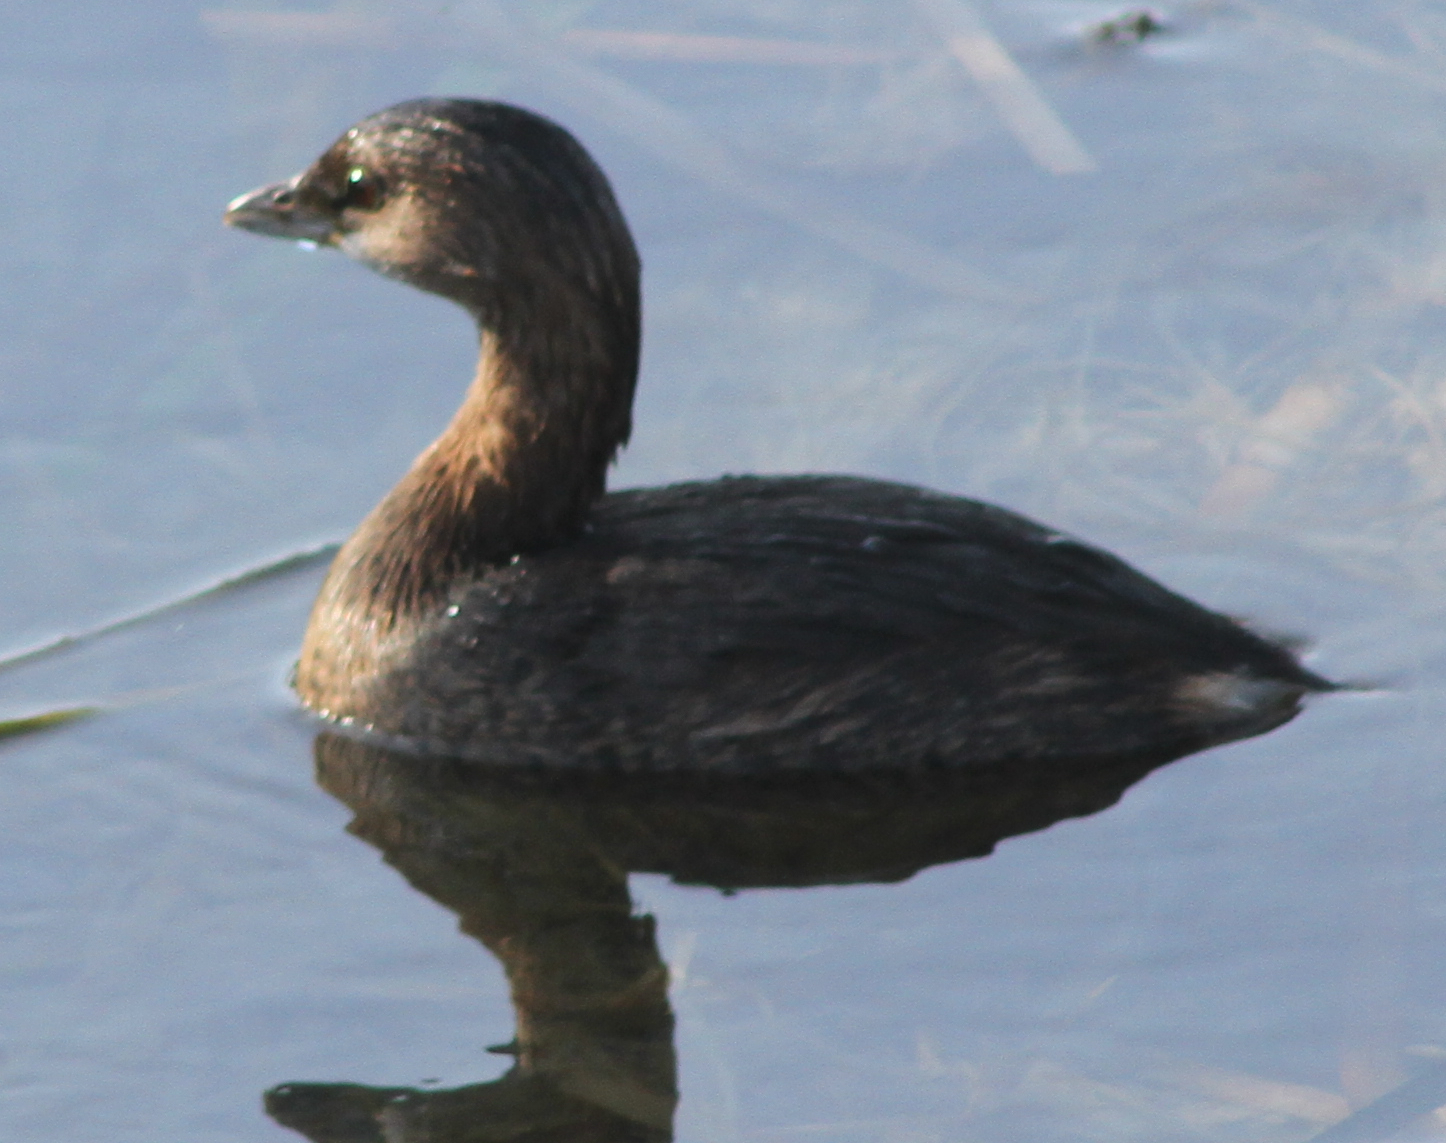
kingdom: Animalia
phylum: Chordata
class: Aves
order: Podicipediformes
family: Podicipedidae
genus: Podilymbus
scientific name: Podilymbus podiceps
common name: Pied-billed grebe
